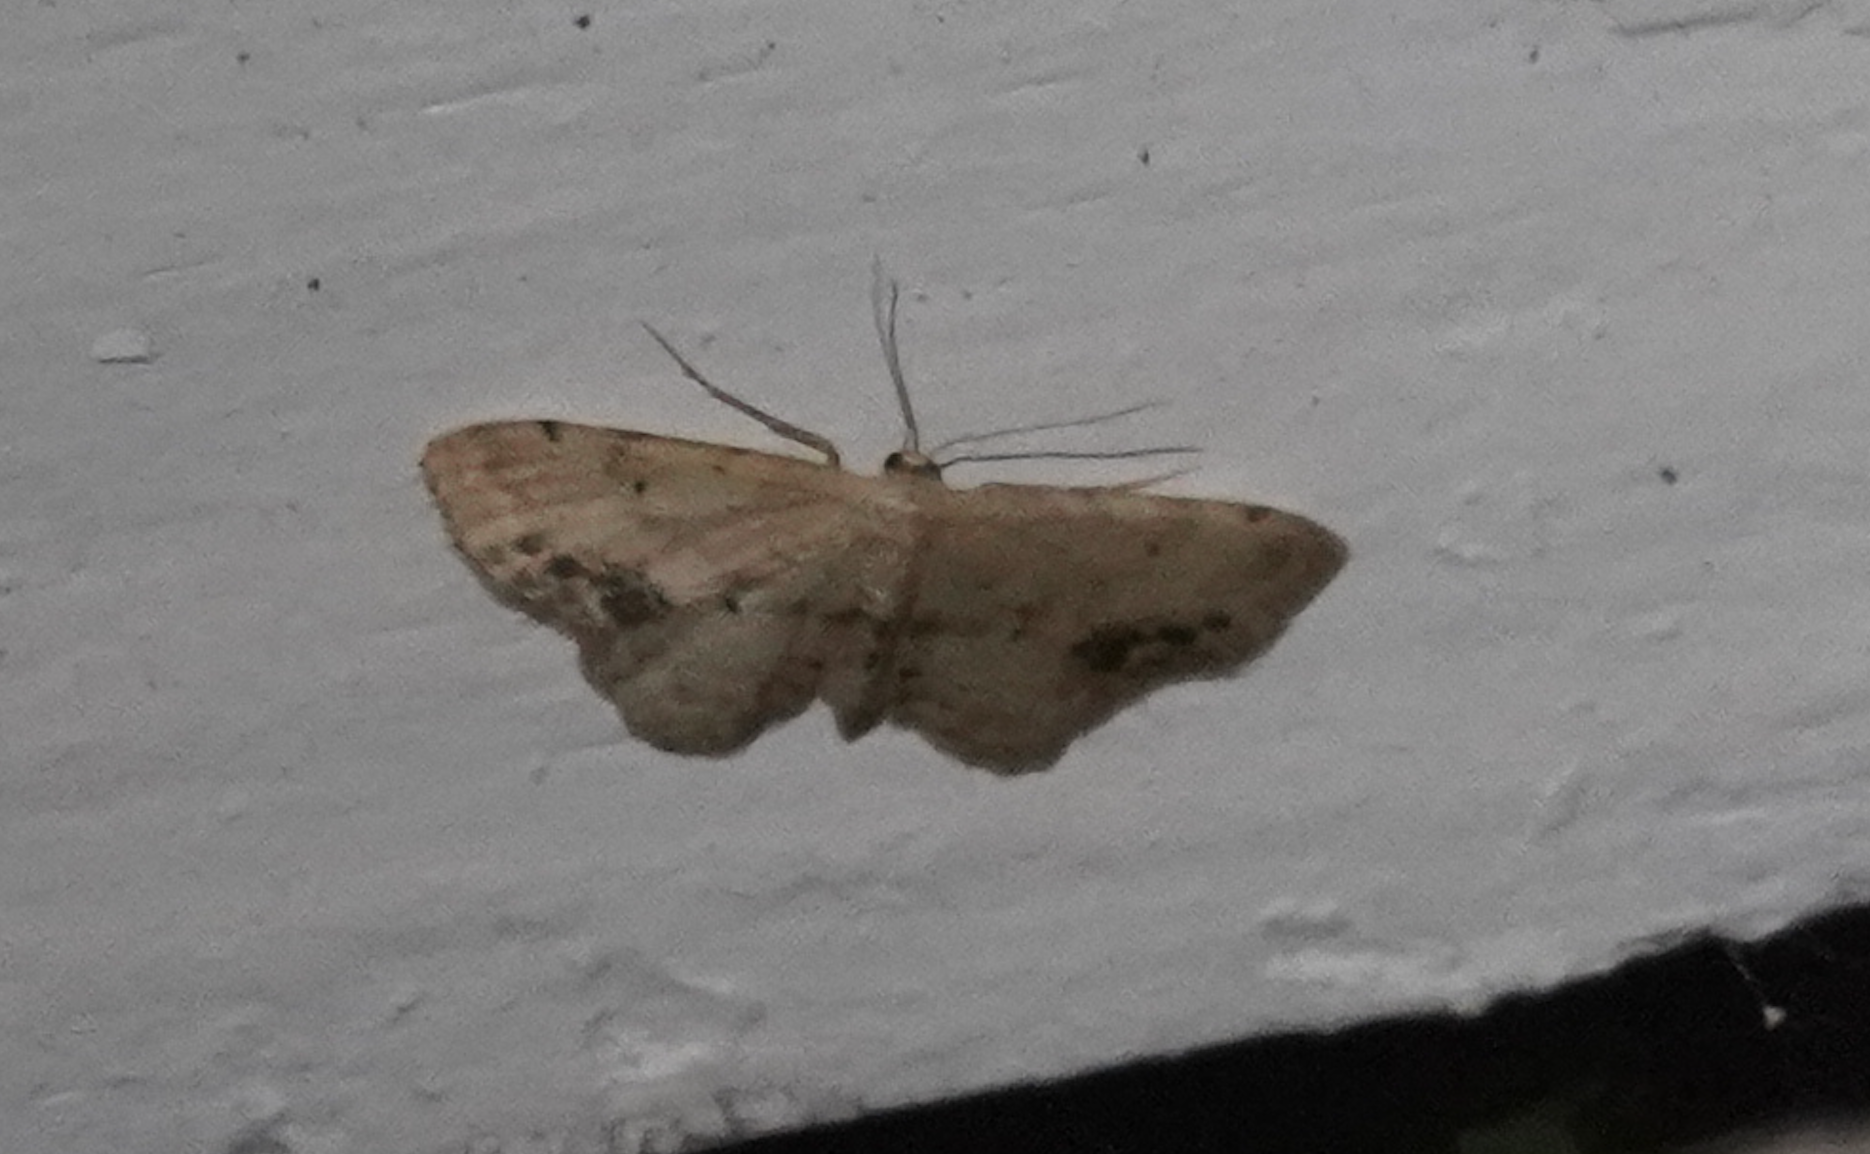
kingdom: Animalia
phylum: Arthropoda
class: Insecta
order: Lepidoptera
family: Geometridae
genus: Idaea
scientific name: Idaea dimidiata
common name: Single-dotted wave
